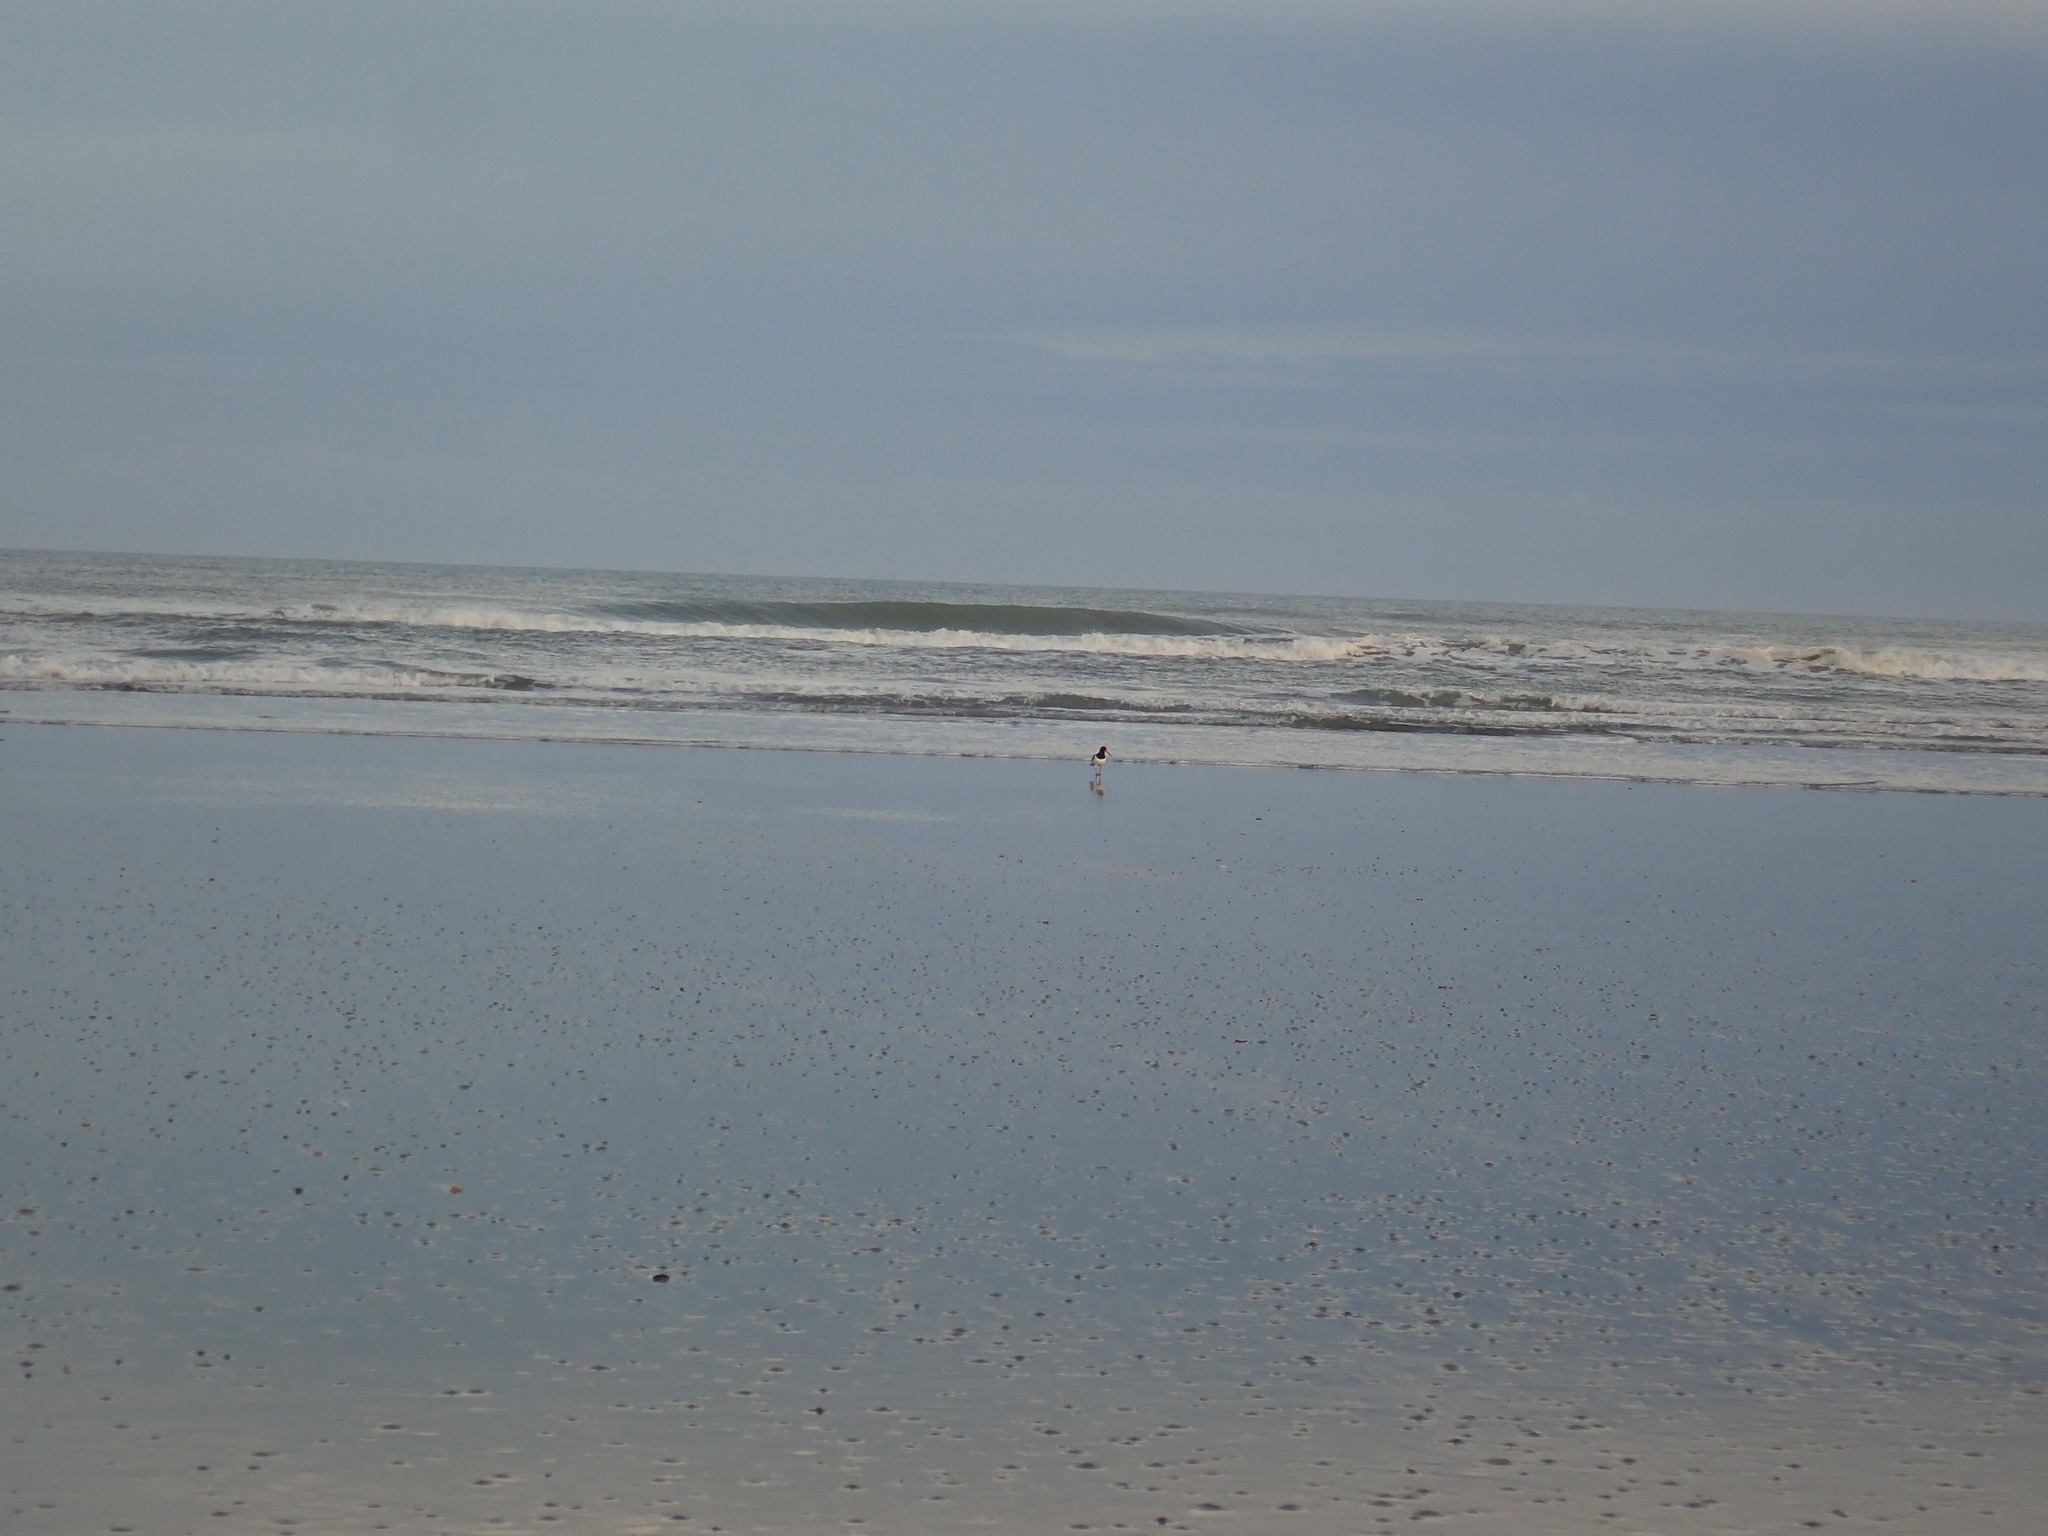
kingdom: Animalia
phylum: Chordata
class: Aves
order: Charadriiformes
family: Haematopodidae
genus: Haematopus
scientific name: Haematopus finschi
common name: South island oystercatcher
